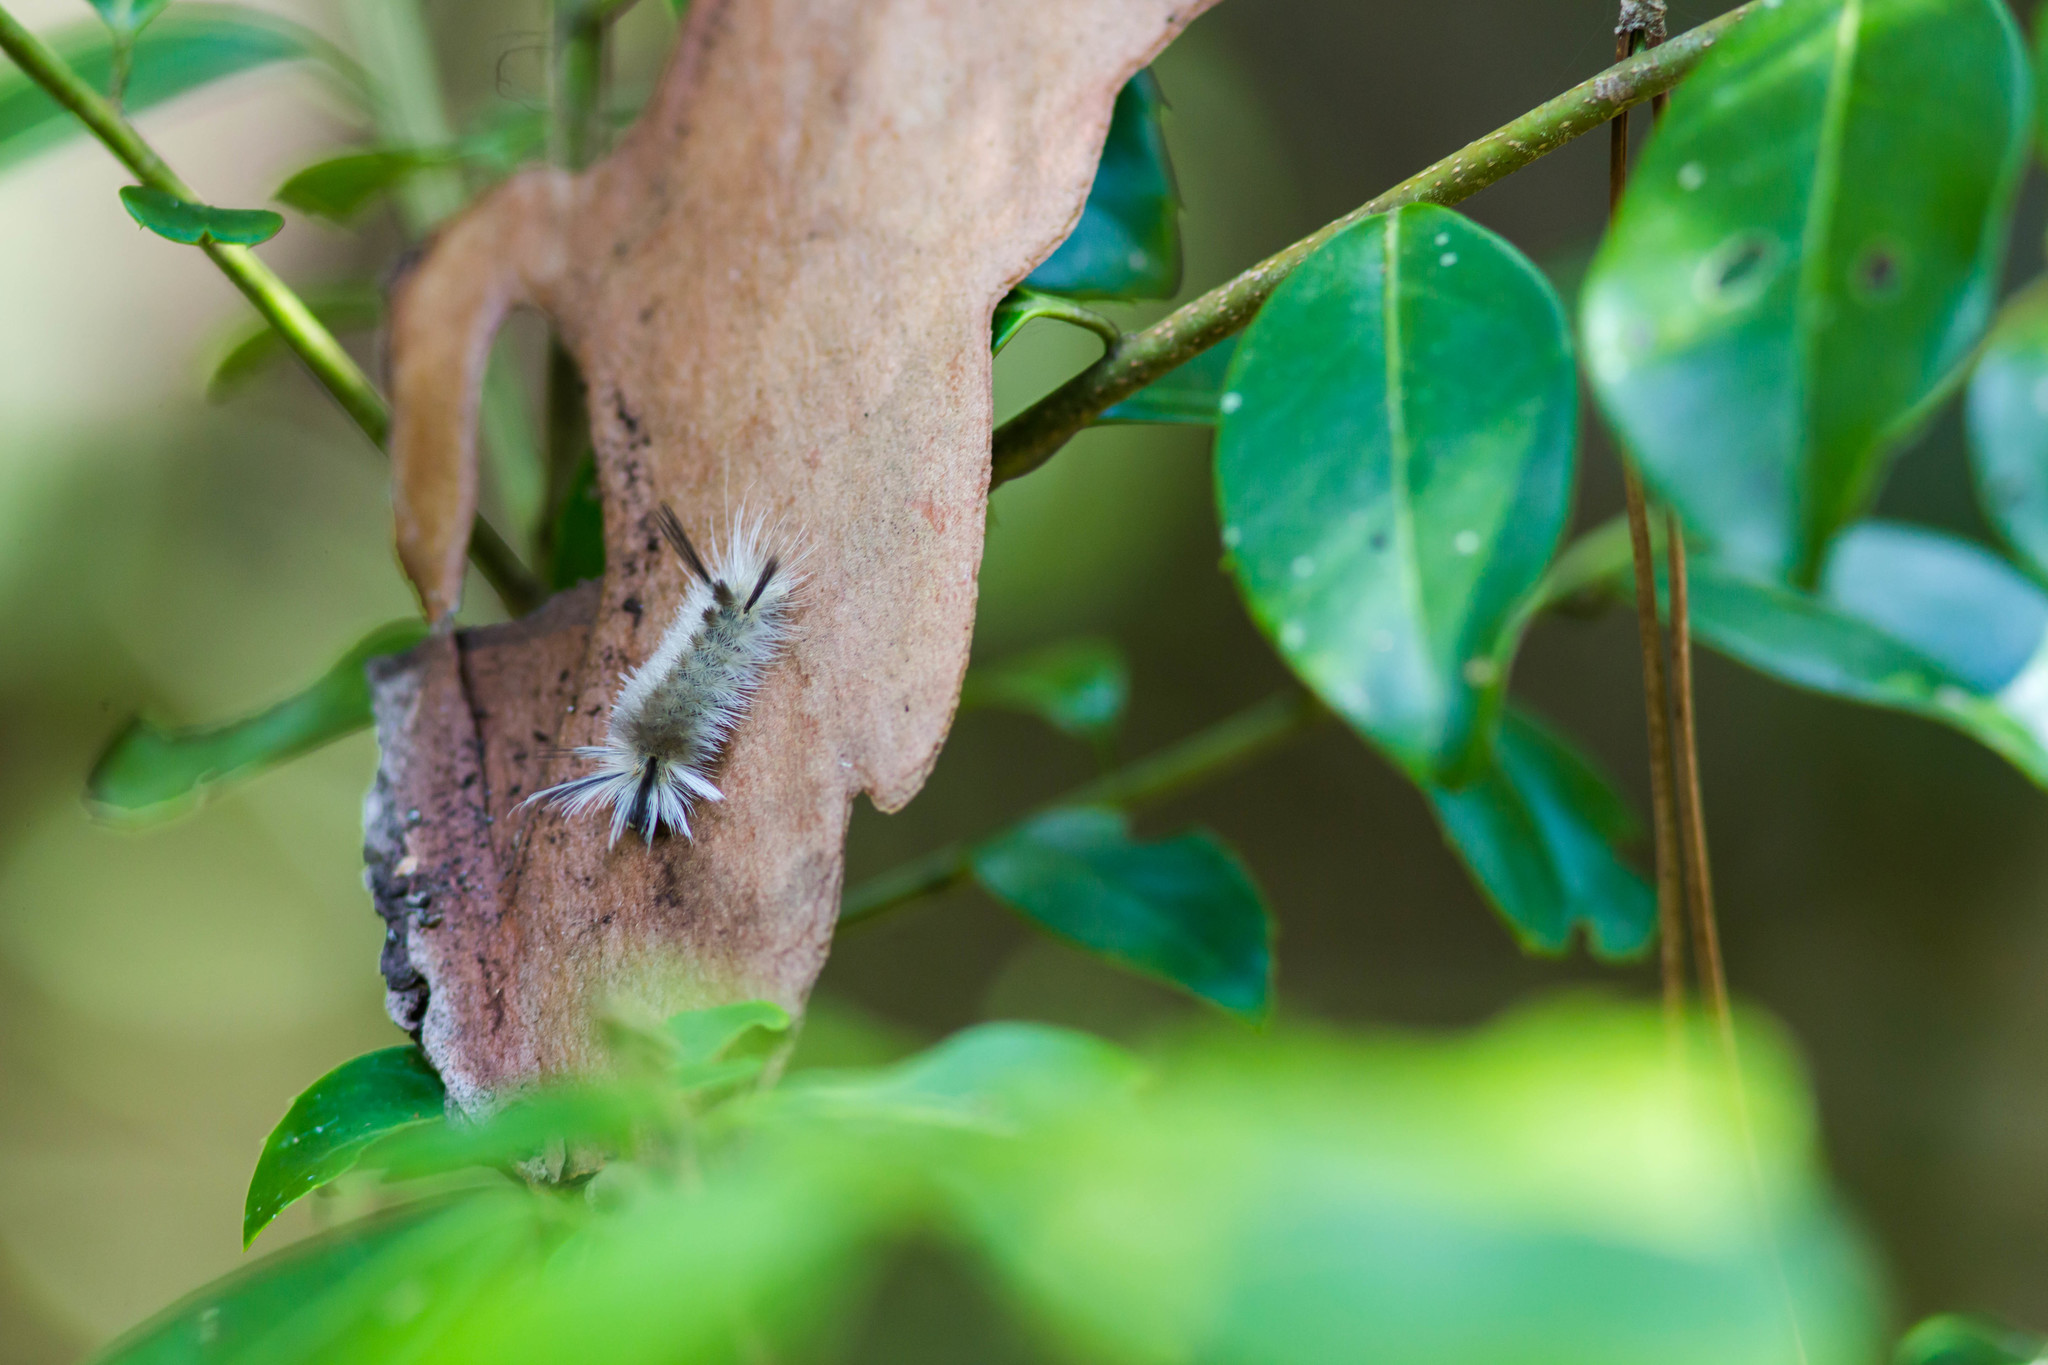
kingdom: Animalia
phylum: Arthropoda
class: Insecta
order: Lepidoptera
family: Erebidae
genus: Halysidota
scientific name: Halysidota tessellaris
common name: Banded tussock moth
